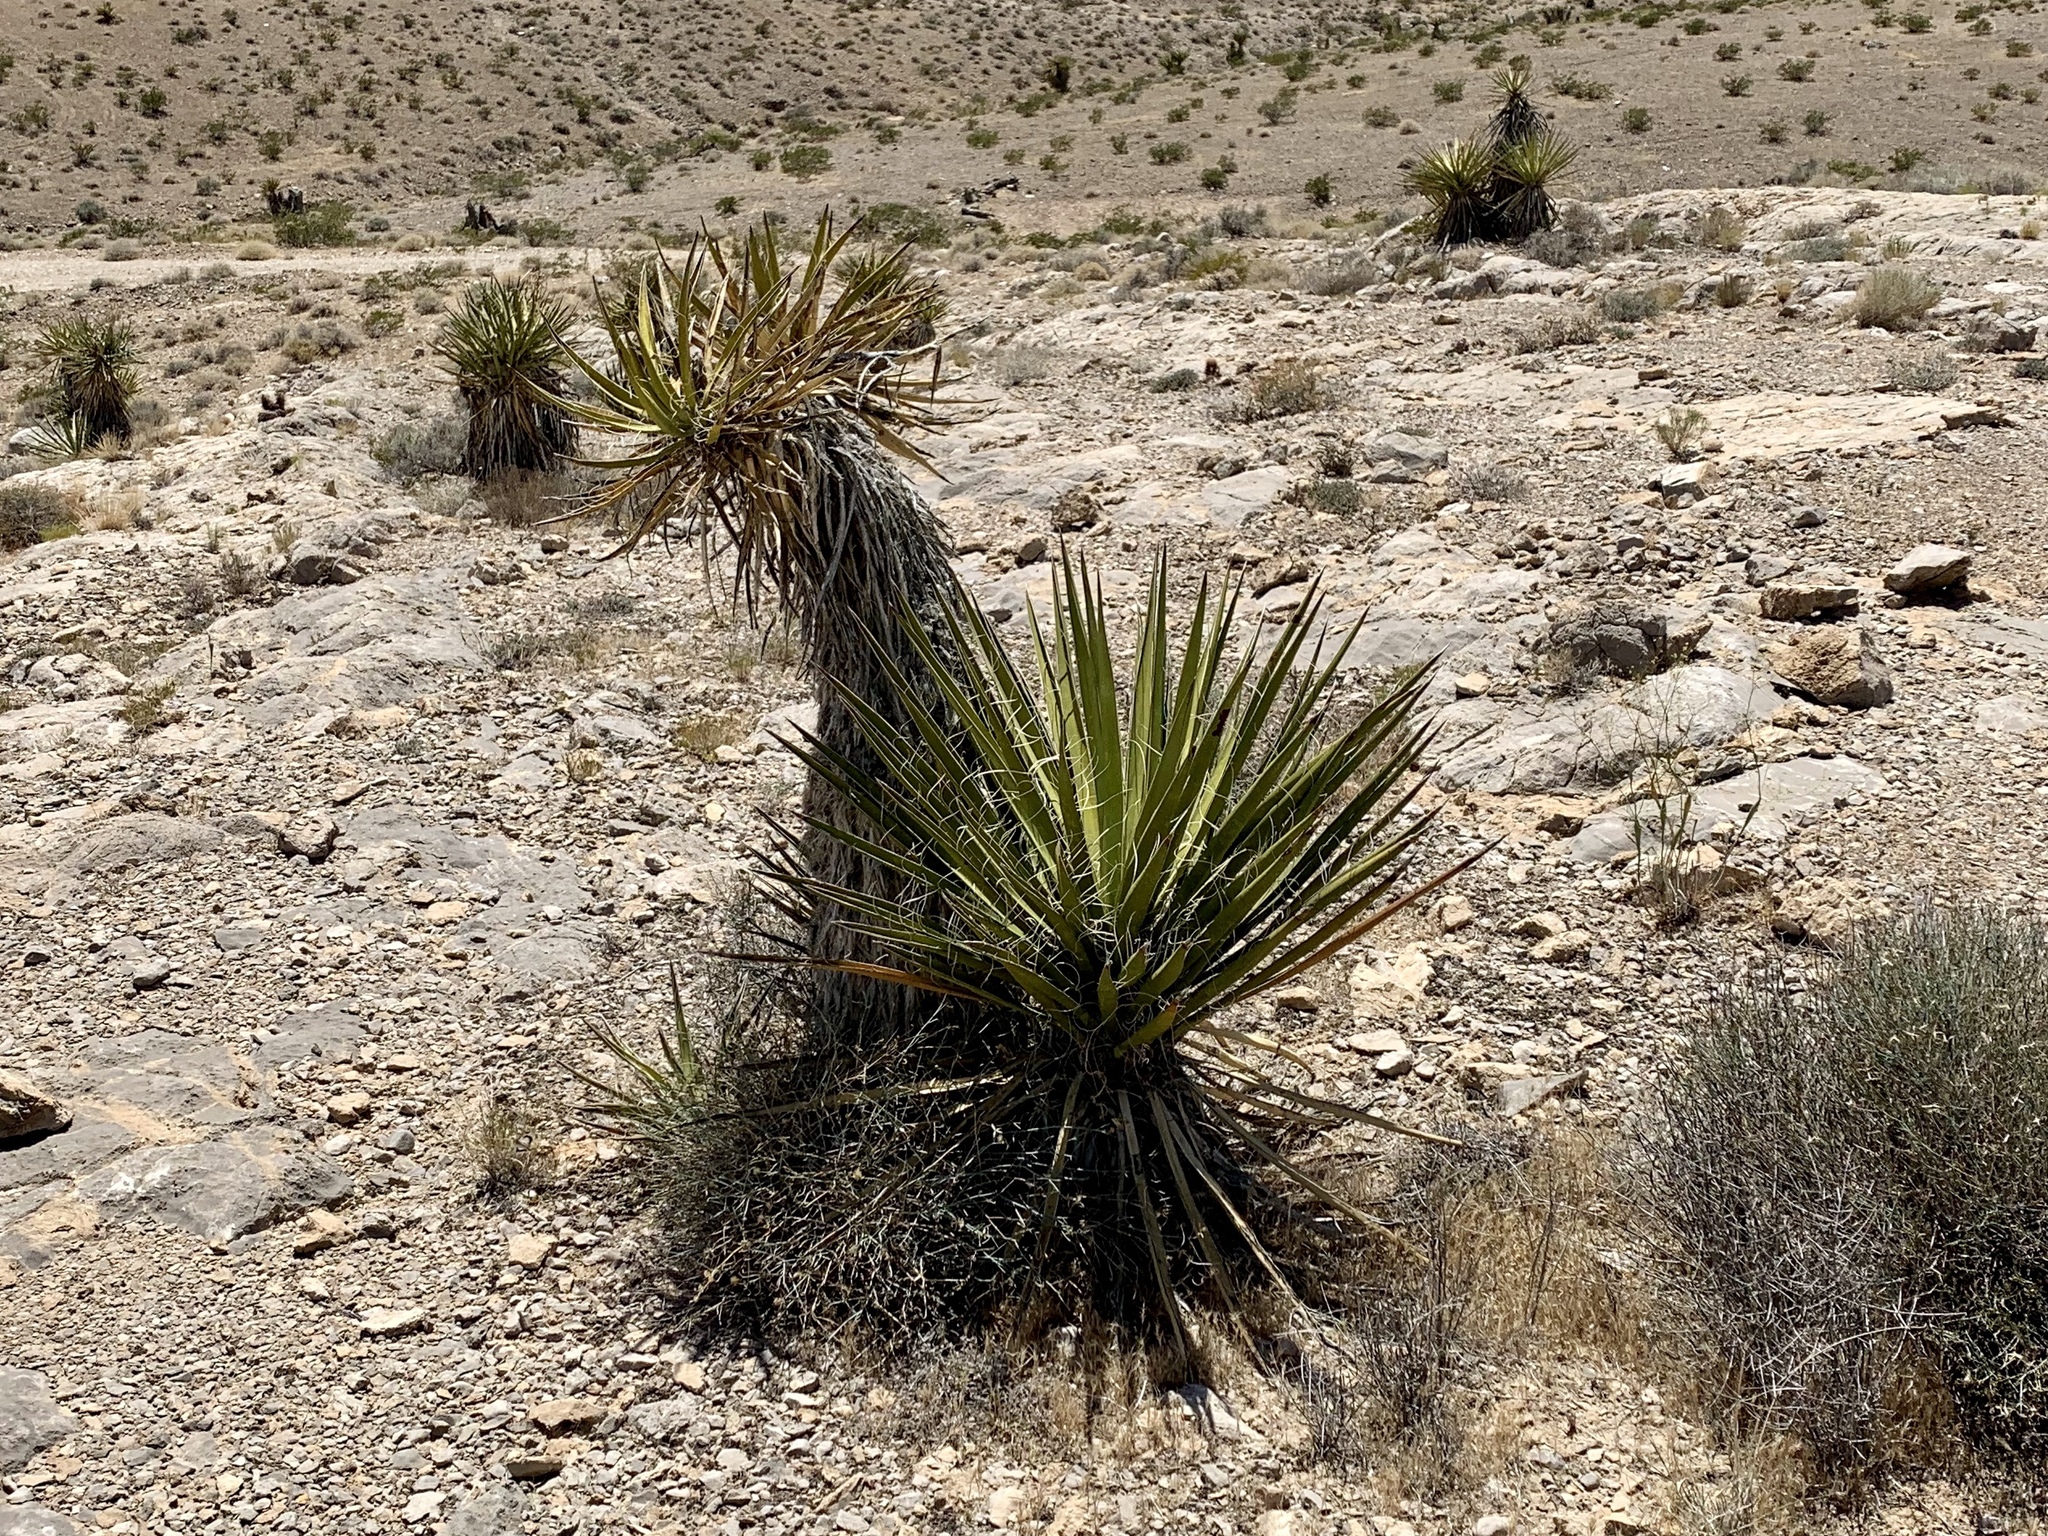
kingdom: Plantae
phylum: Tracheophyta
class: Liliopsida
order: Asparagales
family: Asparagaceae
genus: Yucca
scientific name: Yucca schidigera
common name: Mojave yucca
